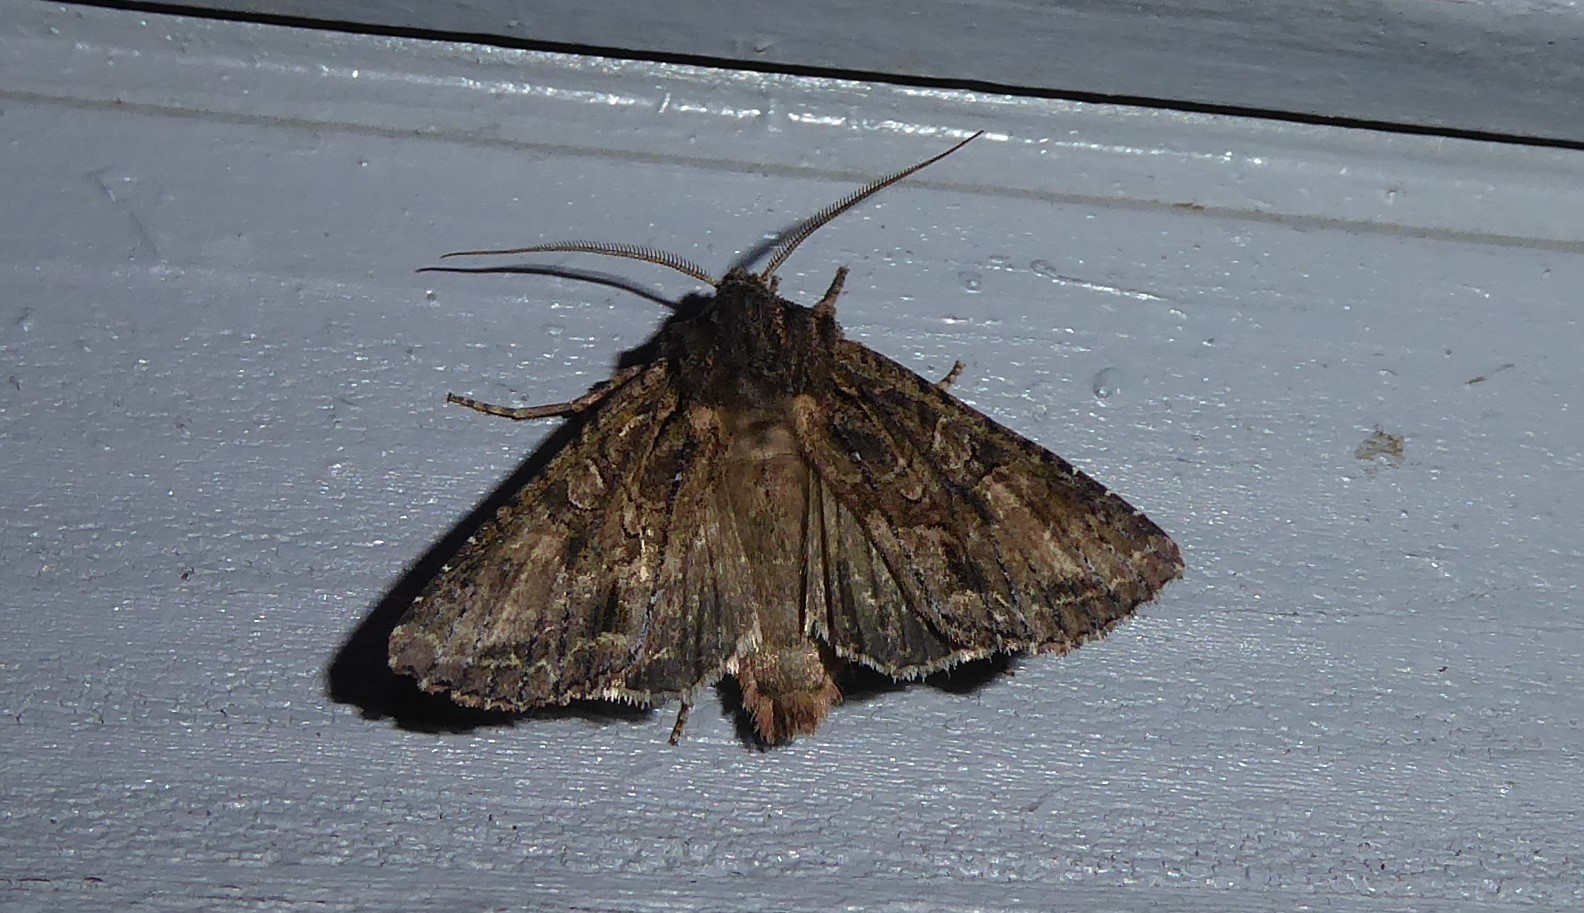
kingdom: Animalia
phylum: Arthropoda
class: Insecta
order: Lepidoptera
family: Noctuidae
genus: Ichneutica
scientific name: Ichneutica mutans
